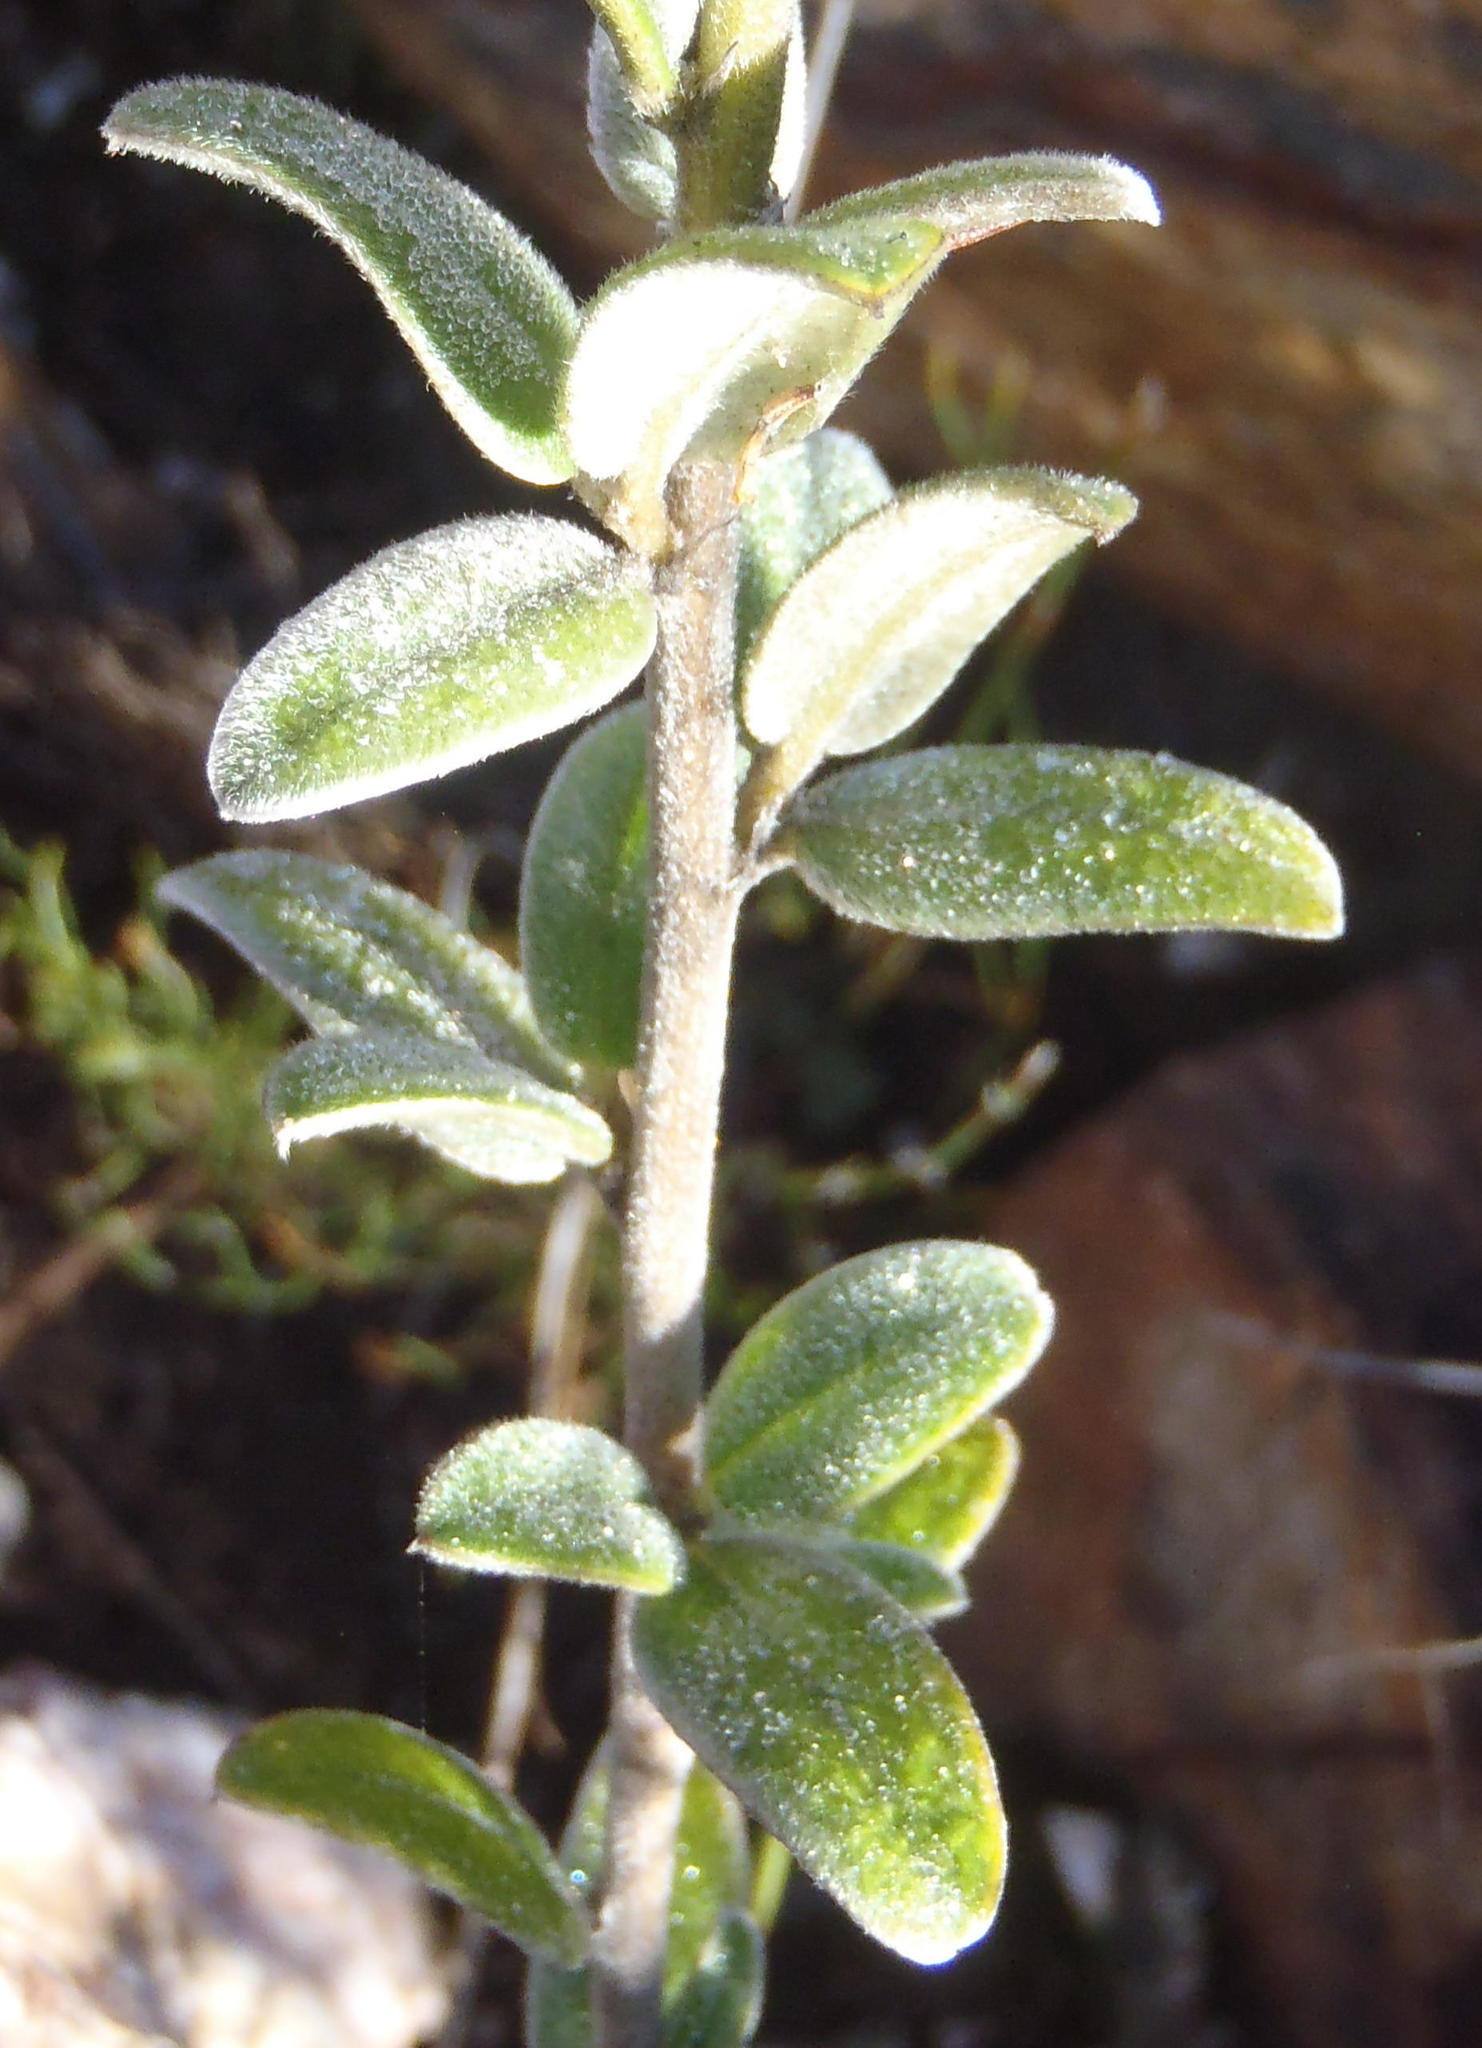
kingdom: Plantae
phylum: Tracheophyta
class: Magnoliopsida
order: Fabales
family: Fabaceae
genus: Podalyria
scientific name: Podalyria burchellii
